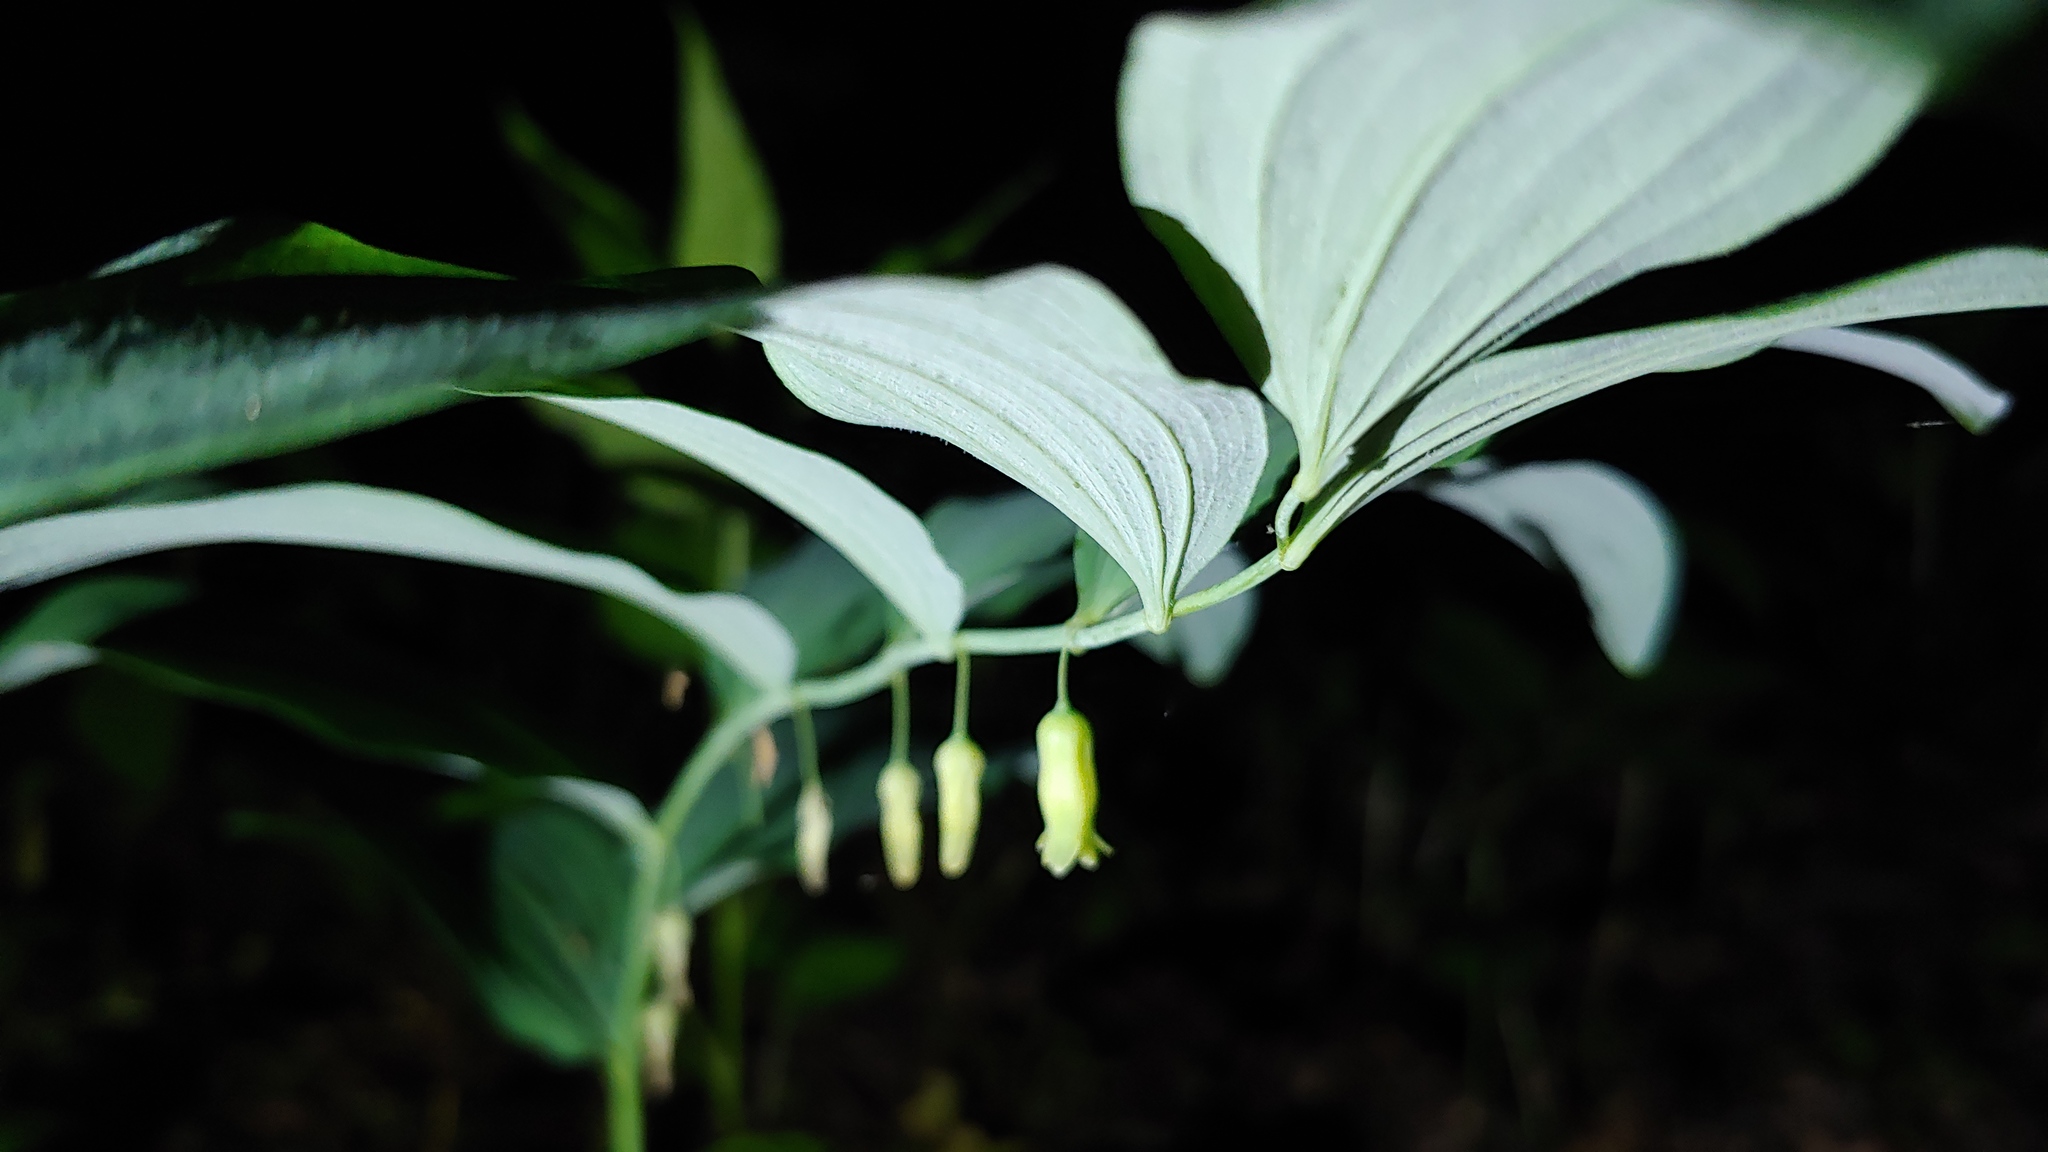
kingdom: Plantae
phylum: Tracheophyta
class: Liliopsida
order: Asparagales
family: Asparagaceae
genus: Polygonatum
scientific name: Polygonatum pubescens
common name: Downy solomon's seal
